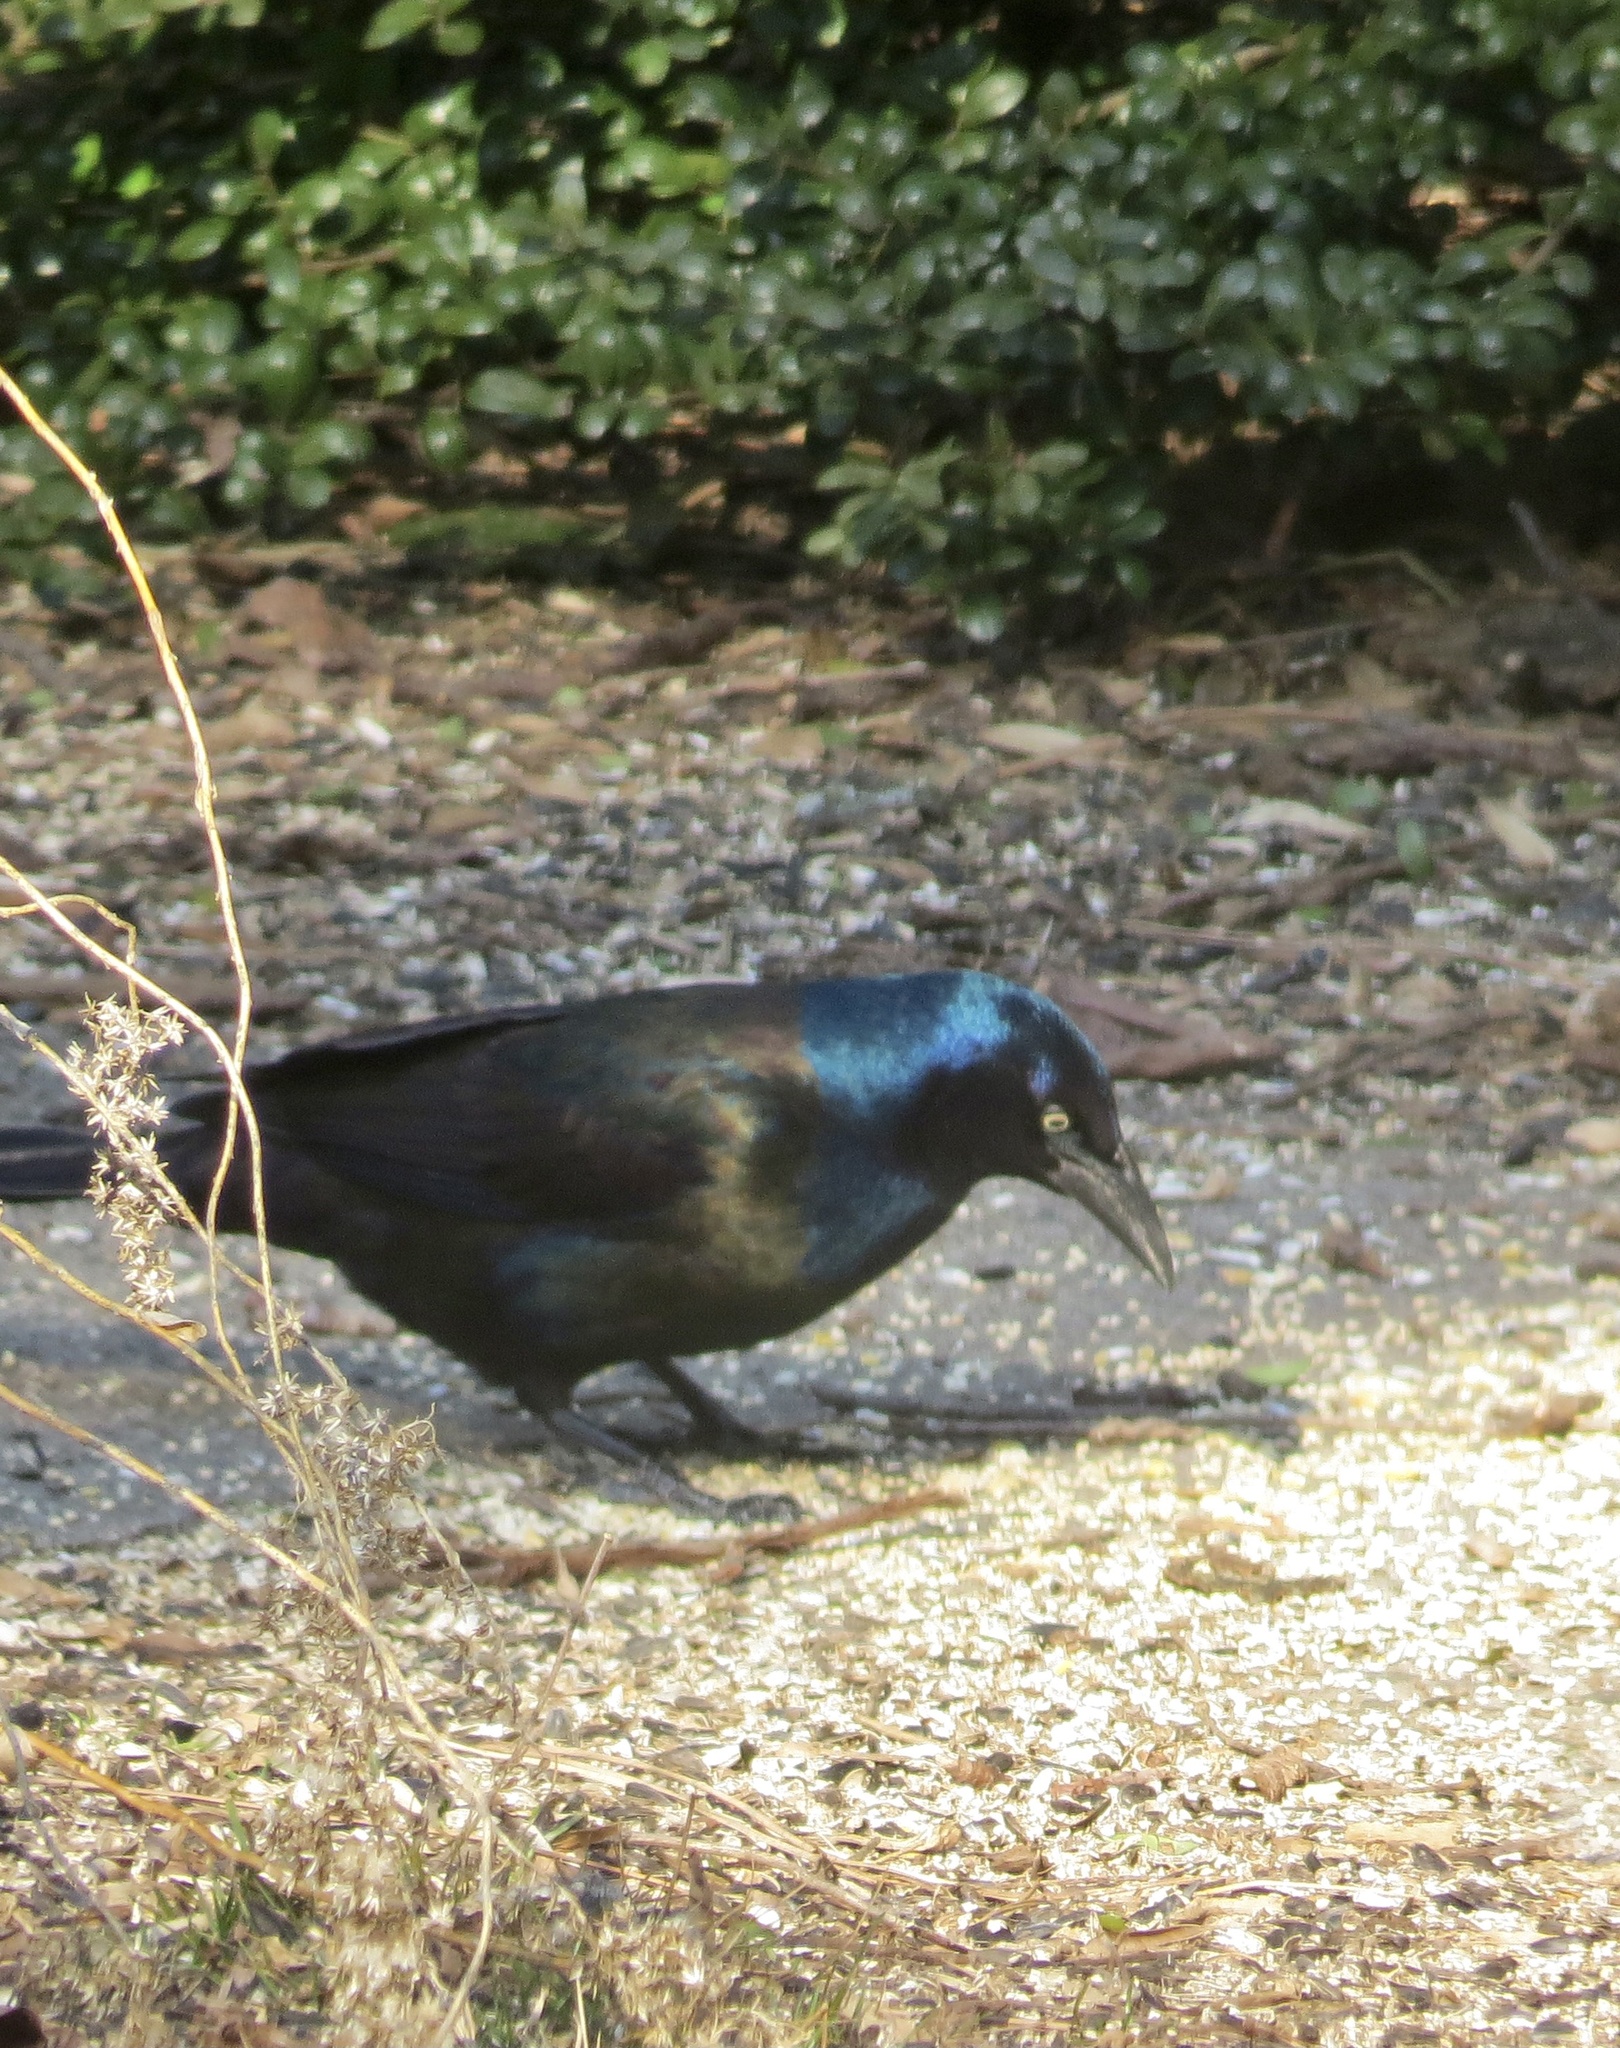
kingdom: Animalia
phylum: Chordata
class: Aves
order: Passeriformes
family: Icteridae
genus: Quiscalus
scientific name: Quiscalus quiscula
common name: Common grackle
